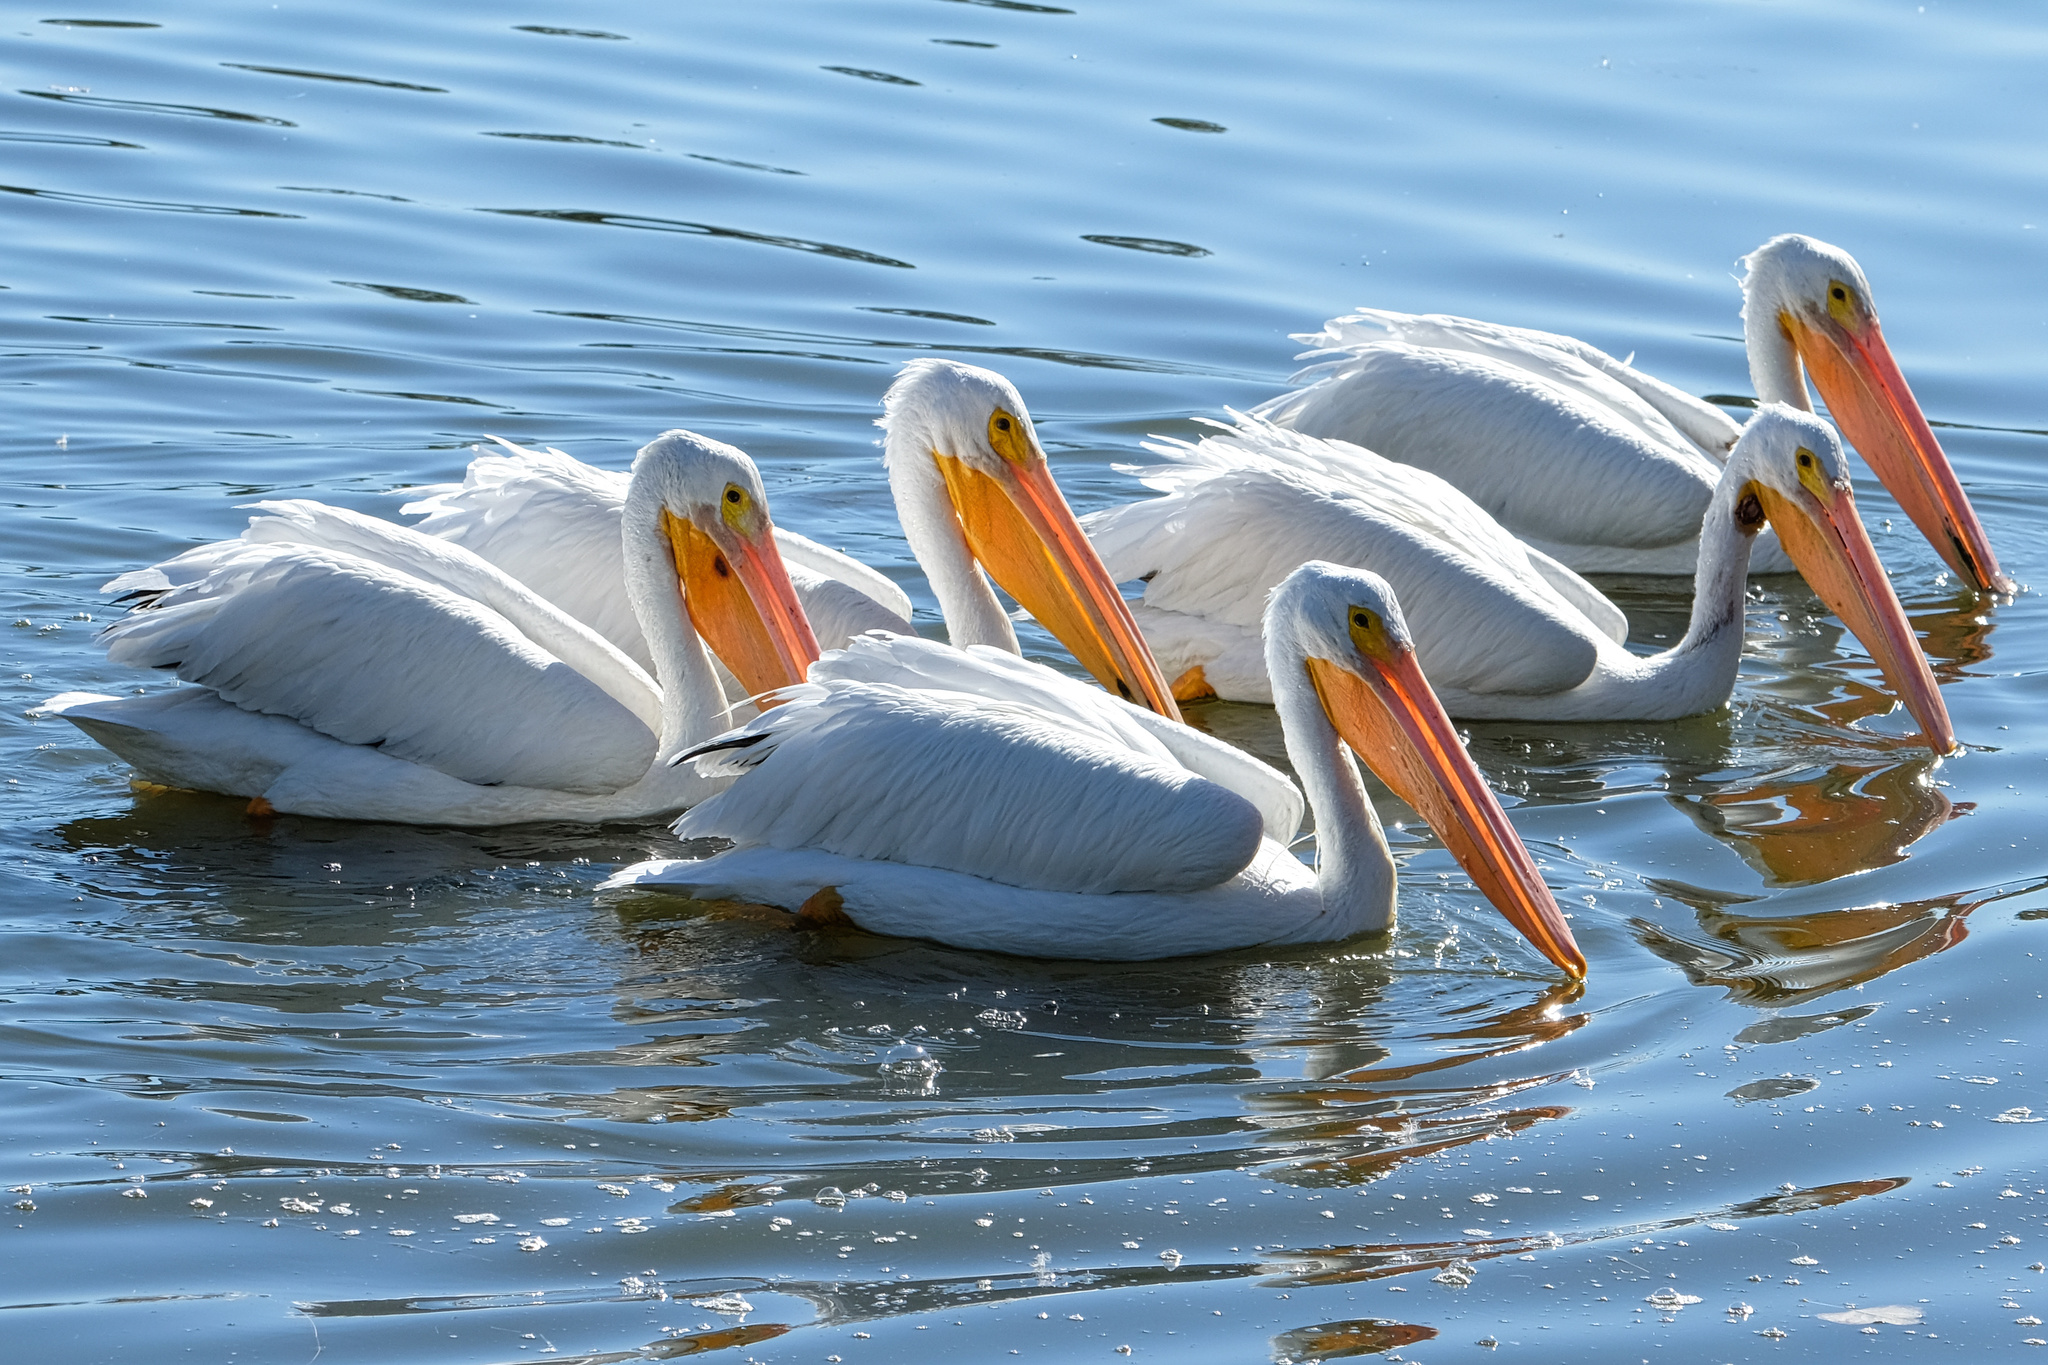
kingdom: Animalia
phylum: Chordata
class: Aves
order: Pelecaniformes
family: Pelecanidae
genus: Pelecanus
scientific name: Pelecanus erythrorhynchos
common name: American white pelican
